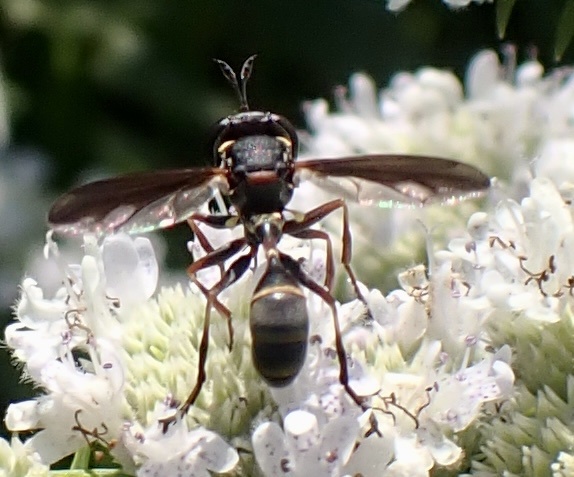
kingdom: Animalia
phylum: Arthropoda
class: Insecta
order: Diptera
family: Conopidae
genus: Physocephala
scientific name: Physocephala marginata
